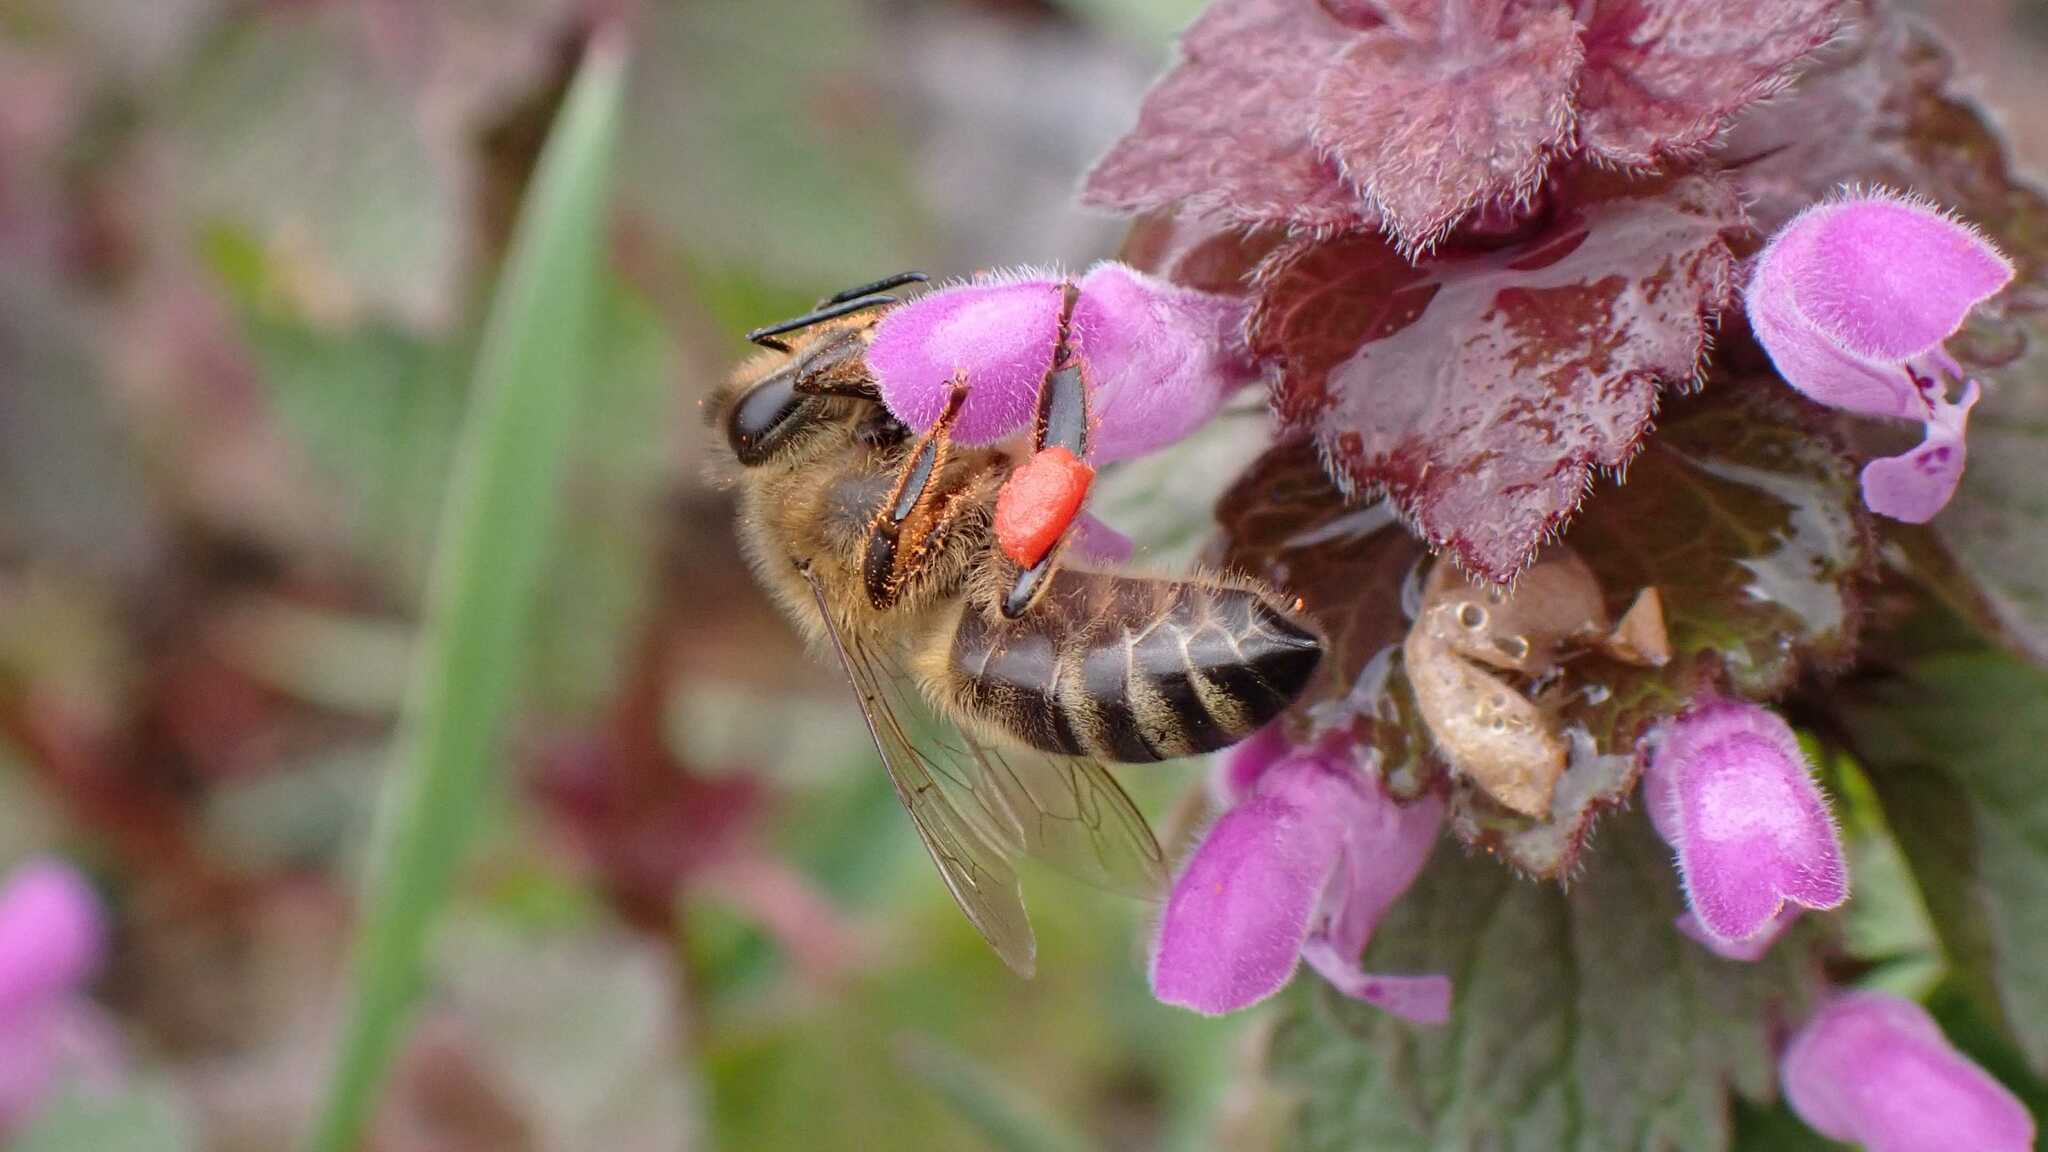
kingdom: Animalia
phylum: Arthropoda
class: Insecta
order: Hymenoptera
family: Apidae
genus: Apis
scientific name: Apis mellifera
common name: Honey bee
